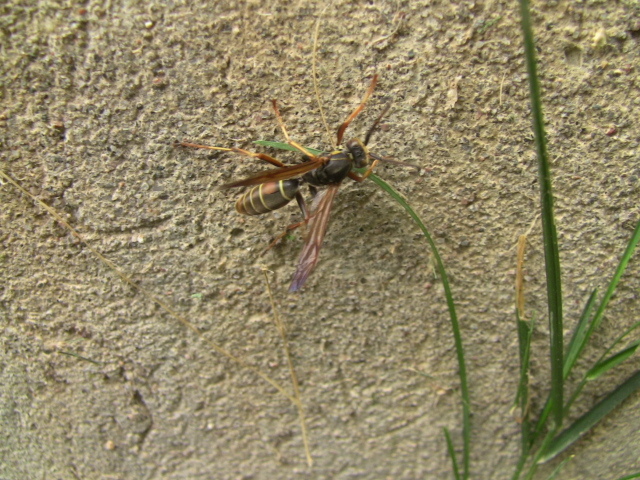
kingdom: Animalia
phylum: Arthropoda
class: Insecta
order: Hymenoptera
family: Eumenidae
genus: Polistes
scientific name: Polistes fuscatus
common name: Dark paper wasp
